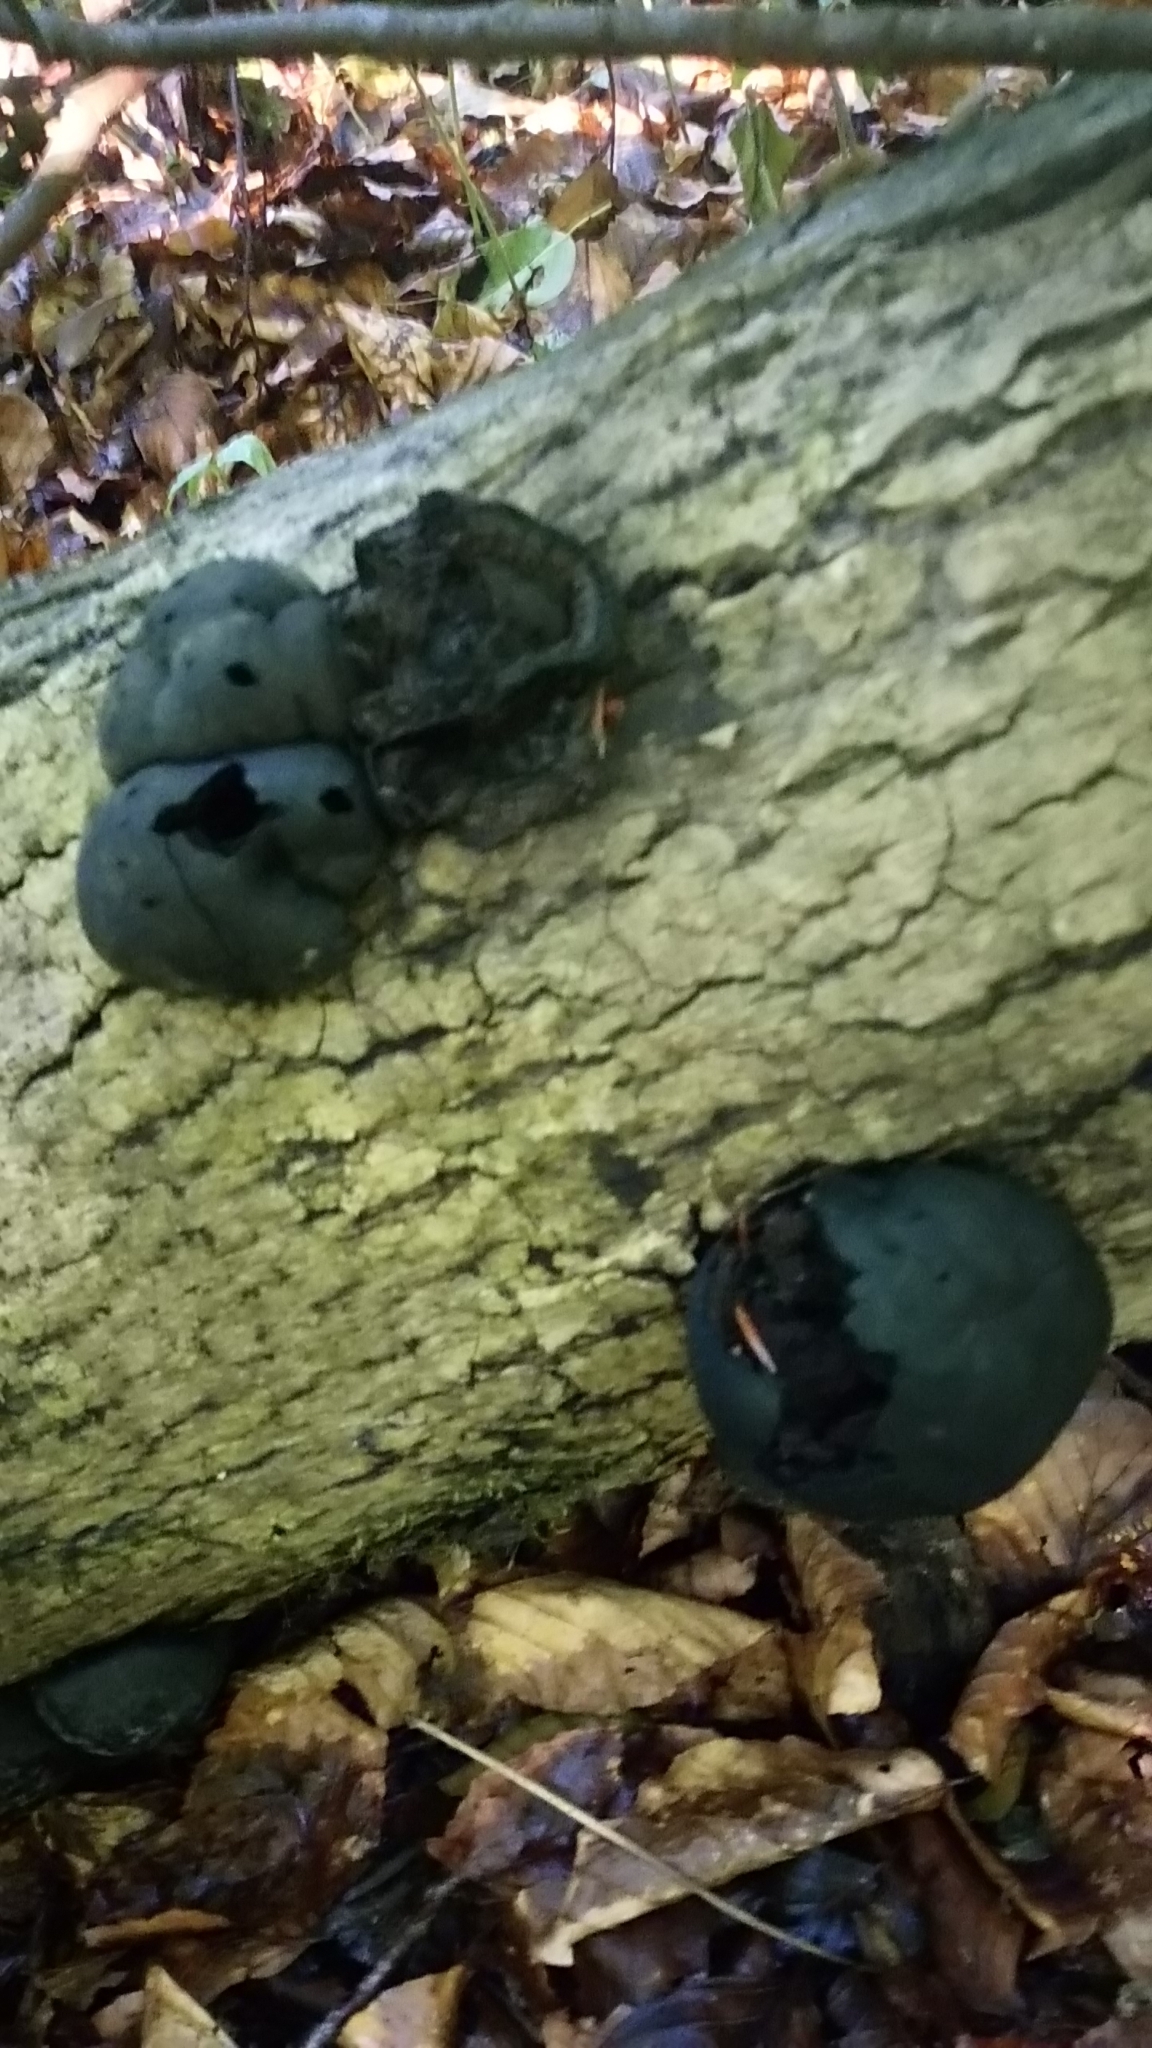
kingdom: Fungi
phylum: Ascomycota
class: Sordariomycetes
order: Xylariales
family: Hypoxylaceae
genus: Daldinia
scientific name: Daldinia concentrica
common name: Cramp balls
